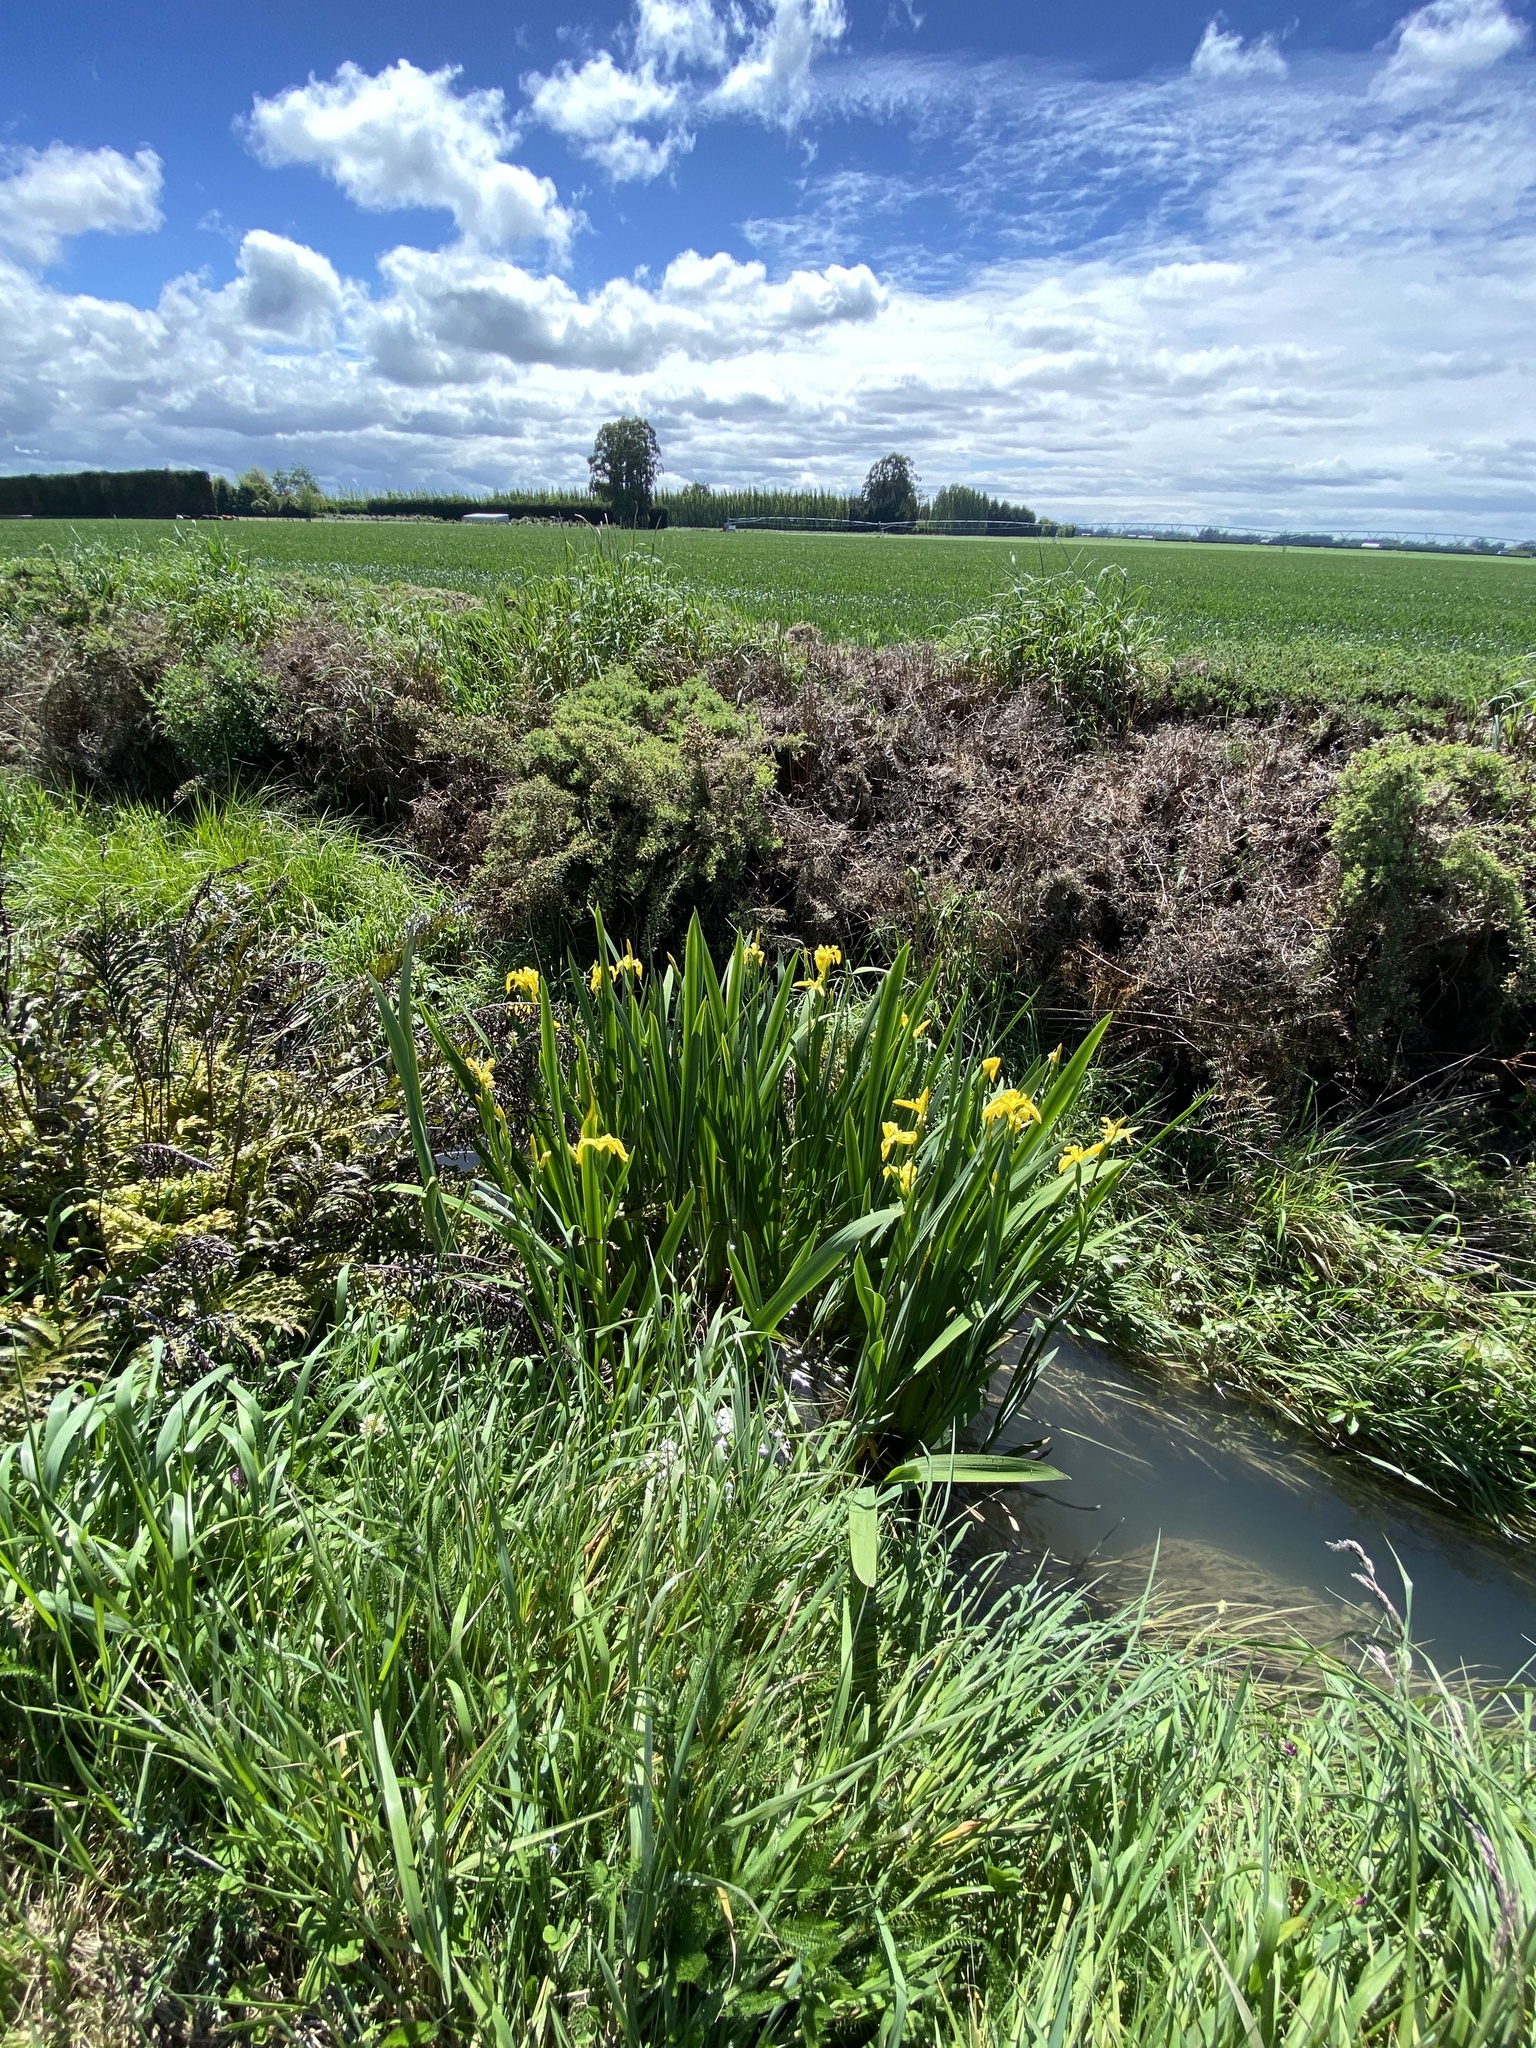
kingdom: Plantae
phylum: Tracheophyta
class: Liliopsida
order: Asparagales
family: Iridaceae
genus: Iris
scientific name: Iris pseudacorus
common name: Yellow flag
